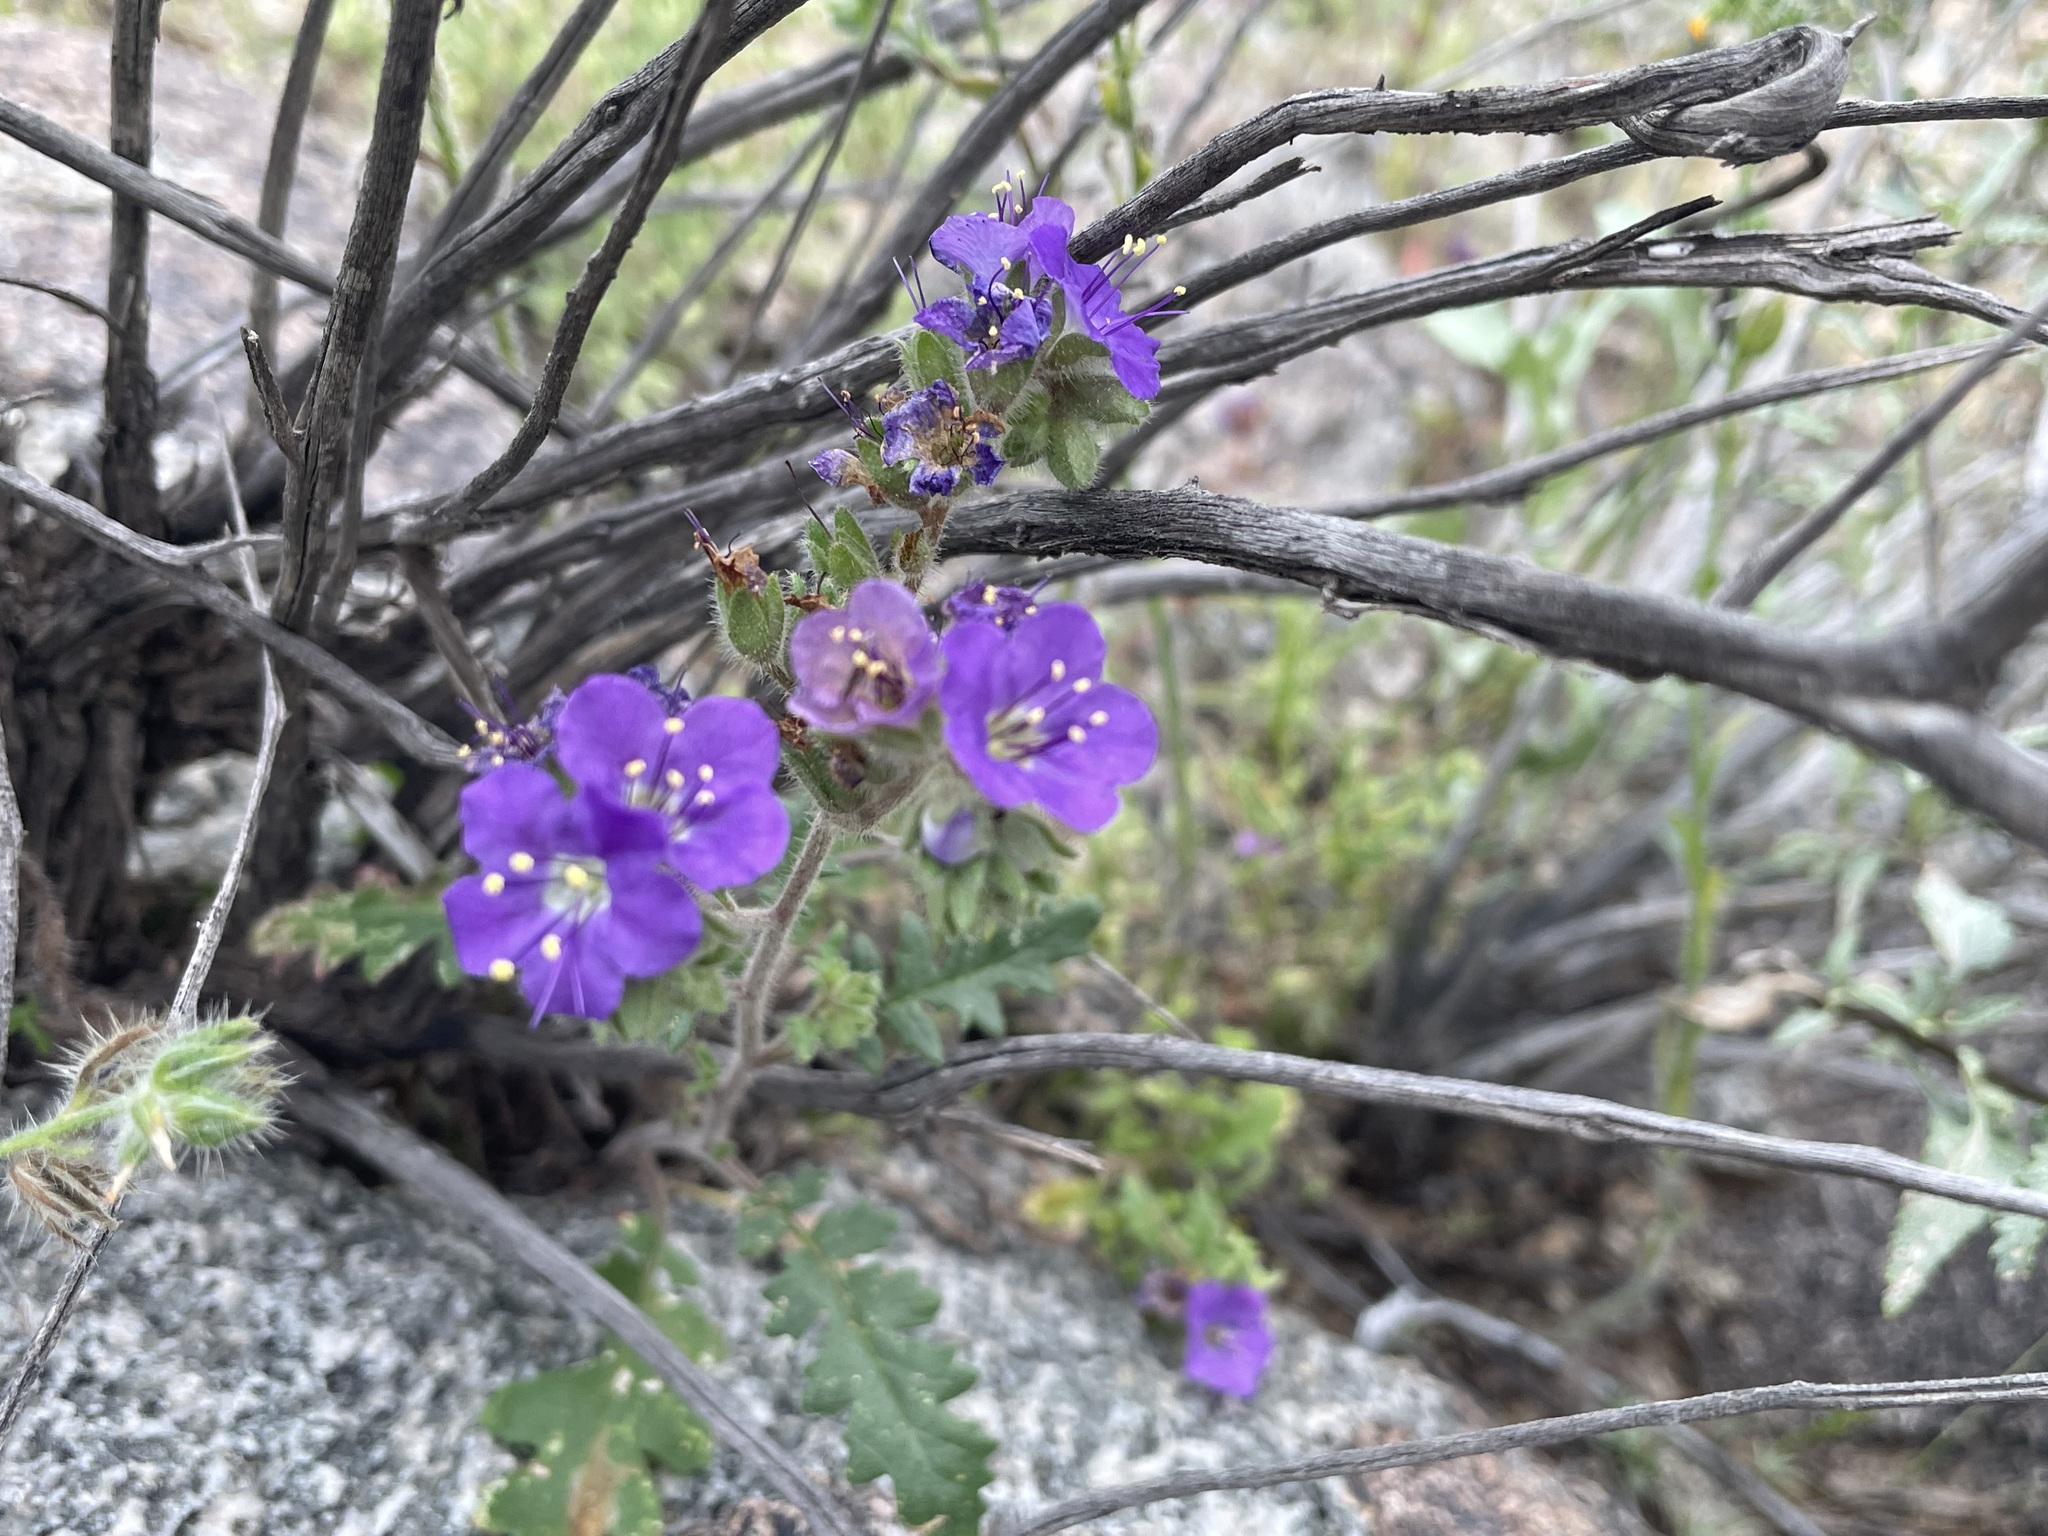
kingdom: Plantae
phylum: Tracheophyta
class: Magnoliopsida
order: Boraginales
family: Hydrophyllaceae
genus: Phacelia
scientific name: Phacelia crenulata
